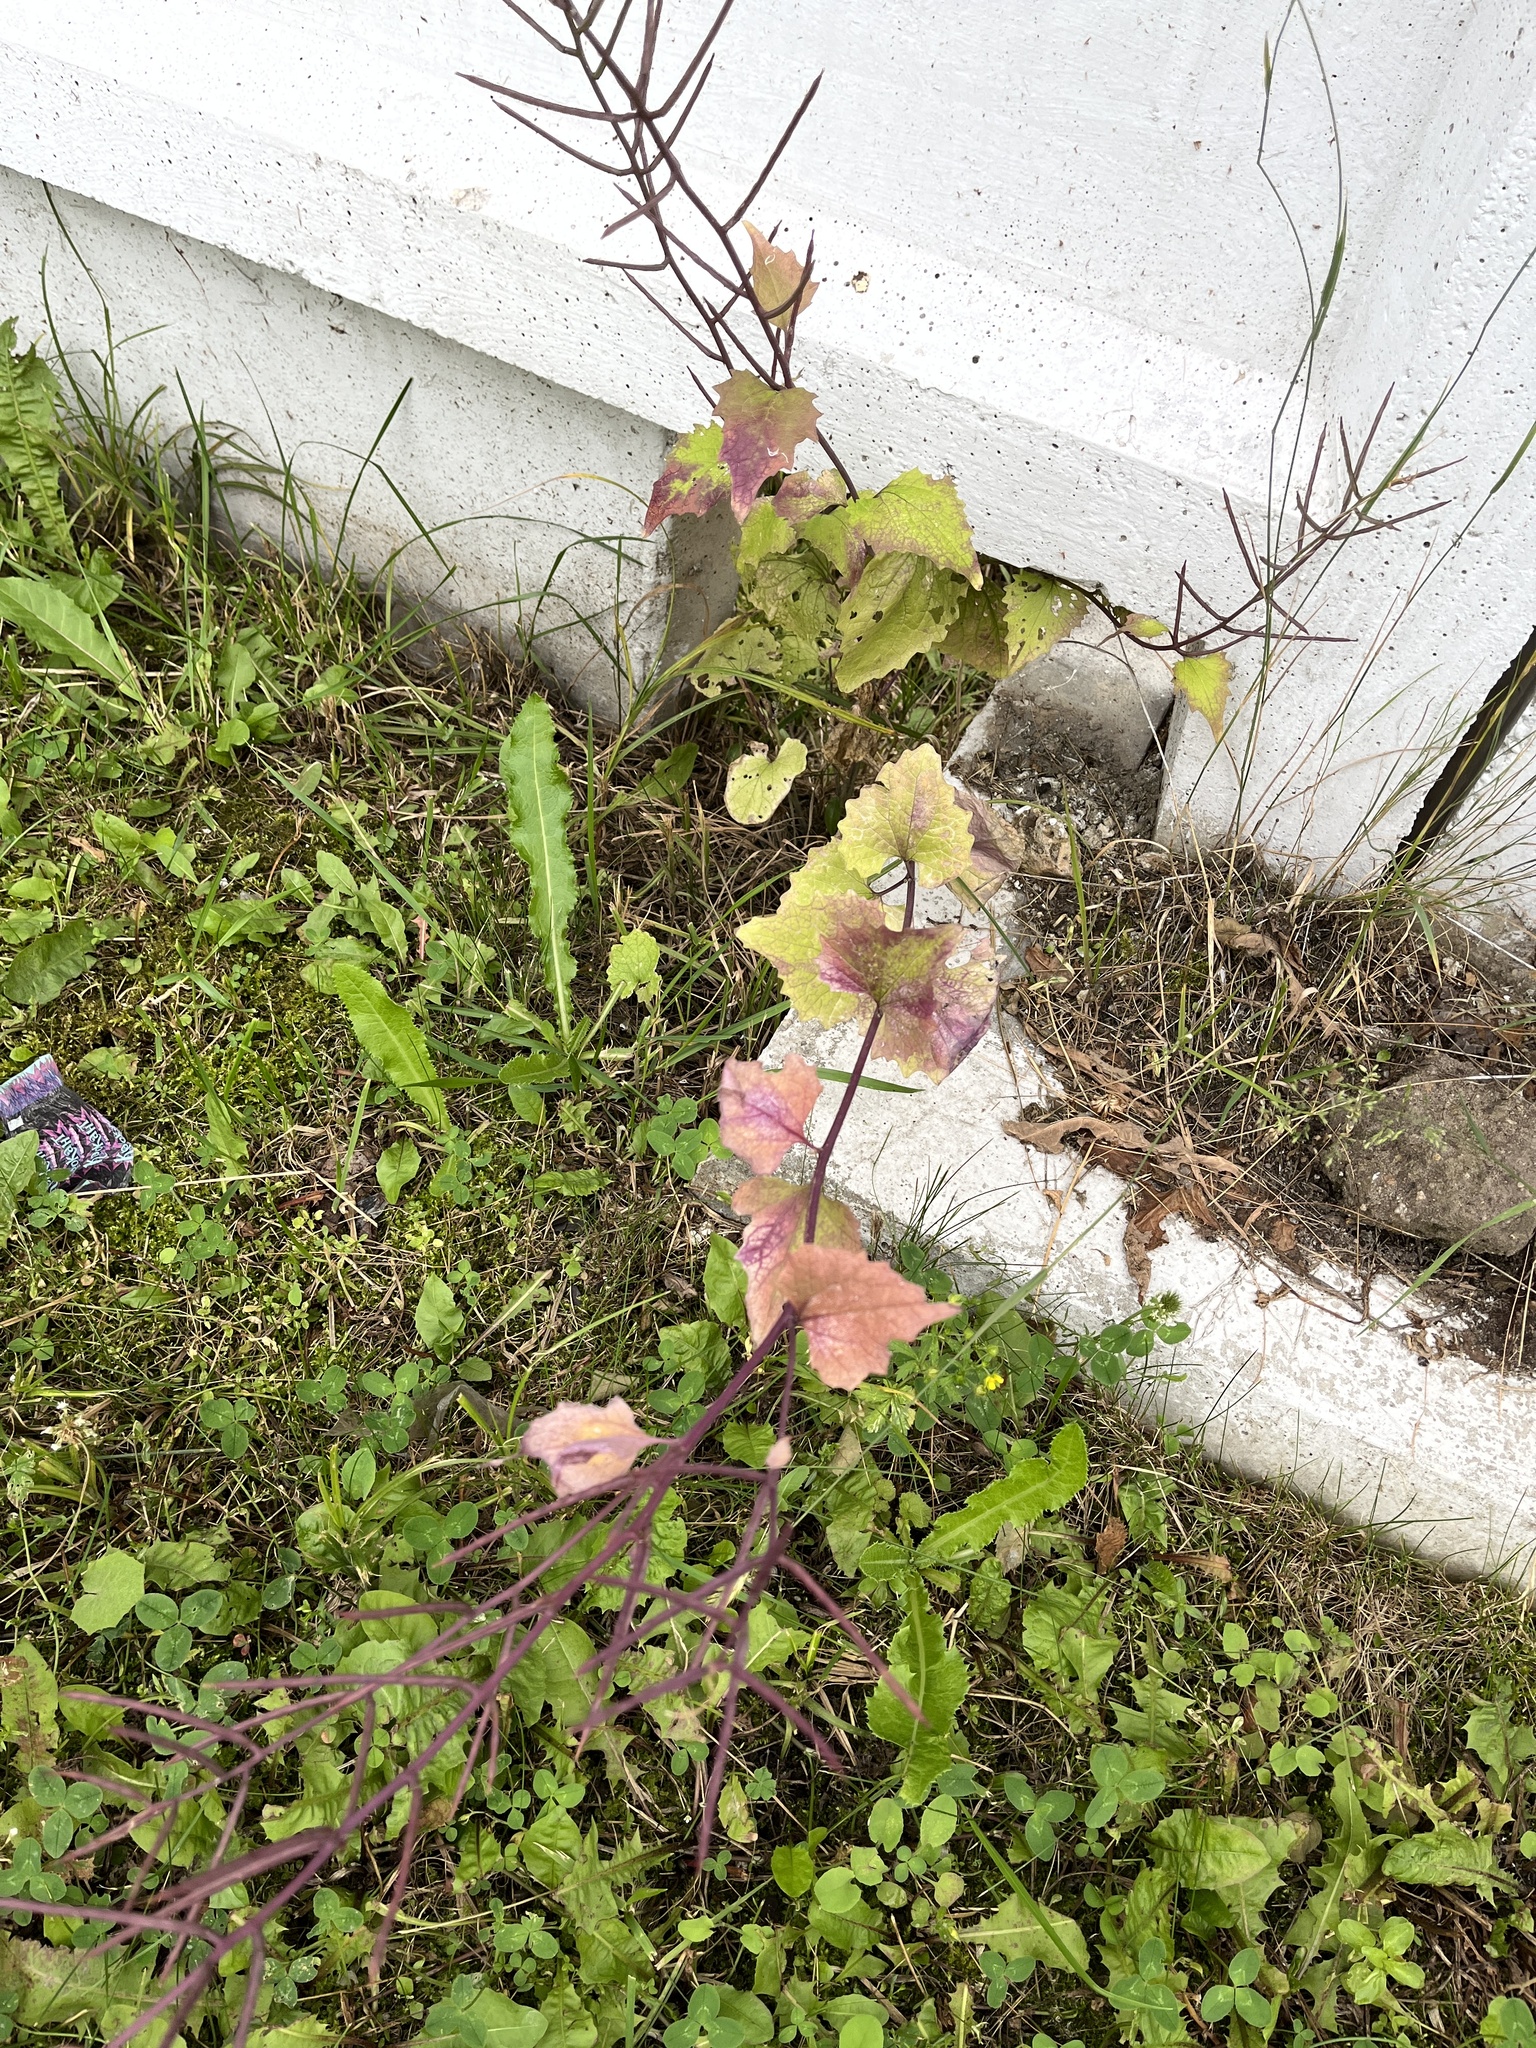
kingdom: Plantae
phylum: Tracheophyta
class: Magnoliopsida
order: Brassicales
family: Brassicaceae
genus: Alliaria
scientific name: Alliaria petiolata
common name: Garlic mustard
